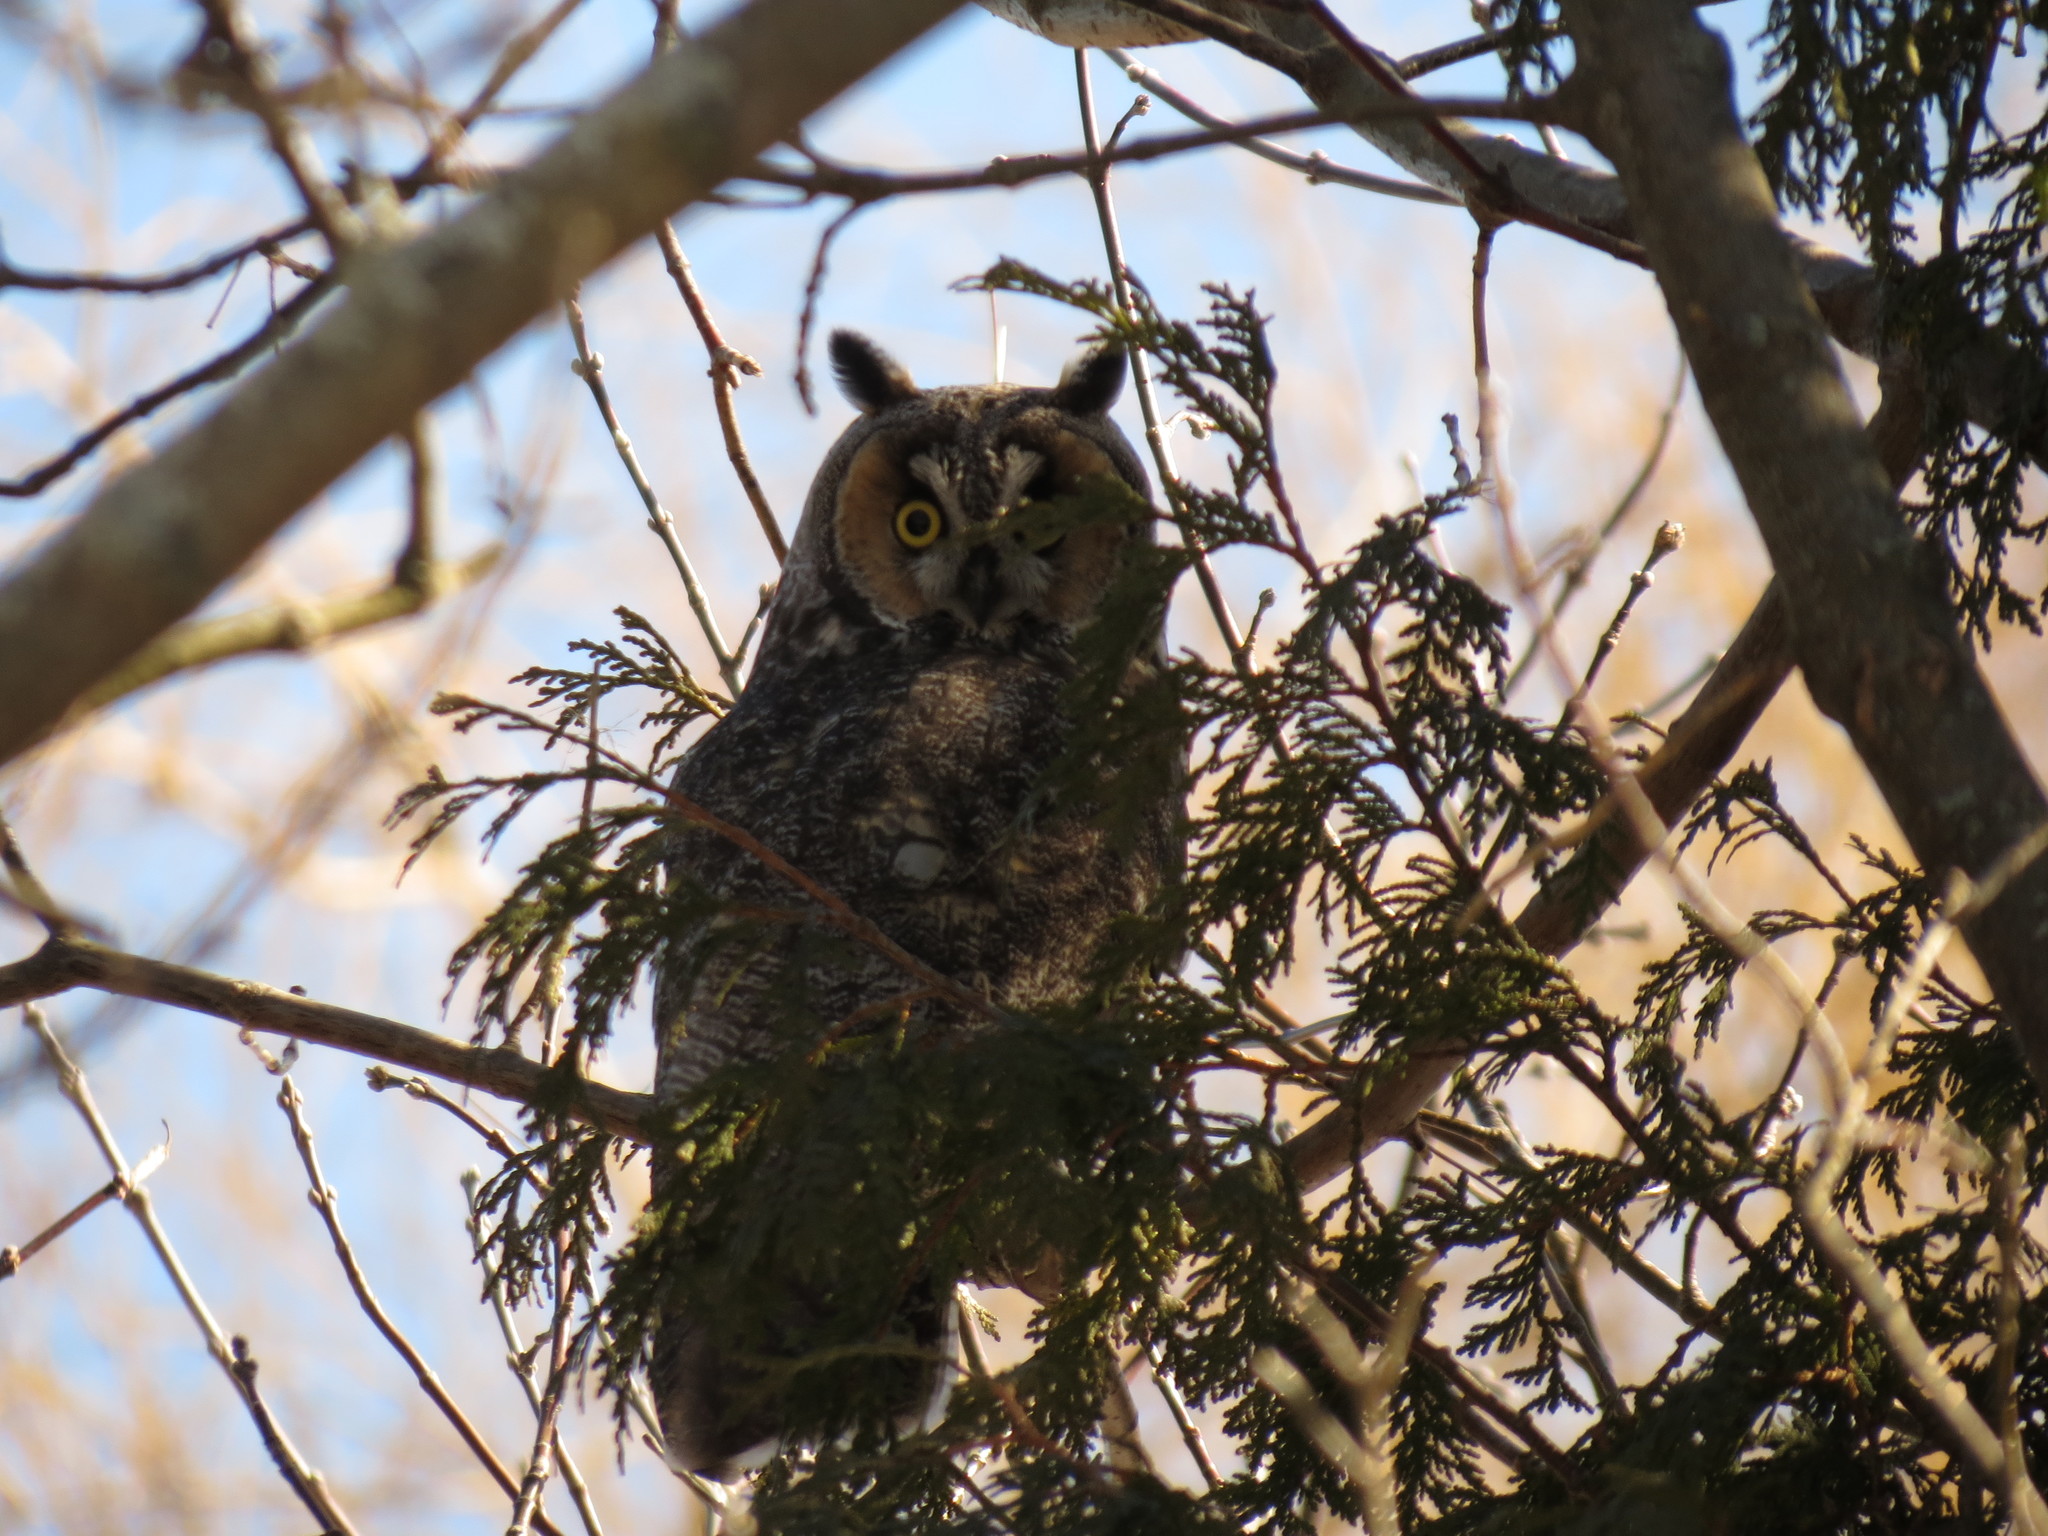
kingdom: Animalia
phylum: Chordata
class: Aves
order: Strigiformes
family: Strigidae
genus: Asio
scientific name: Asio otus
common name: Long-eared owl
